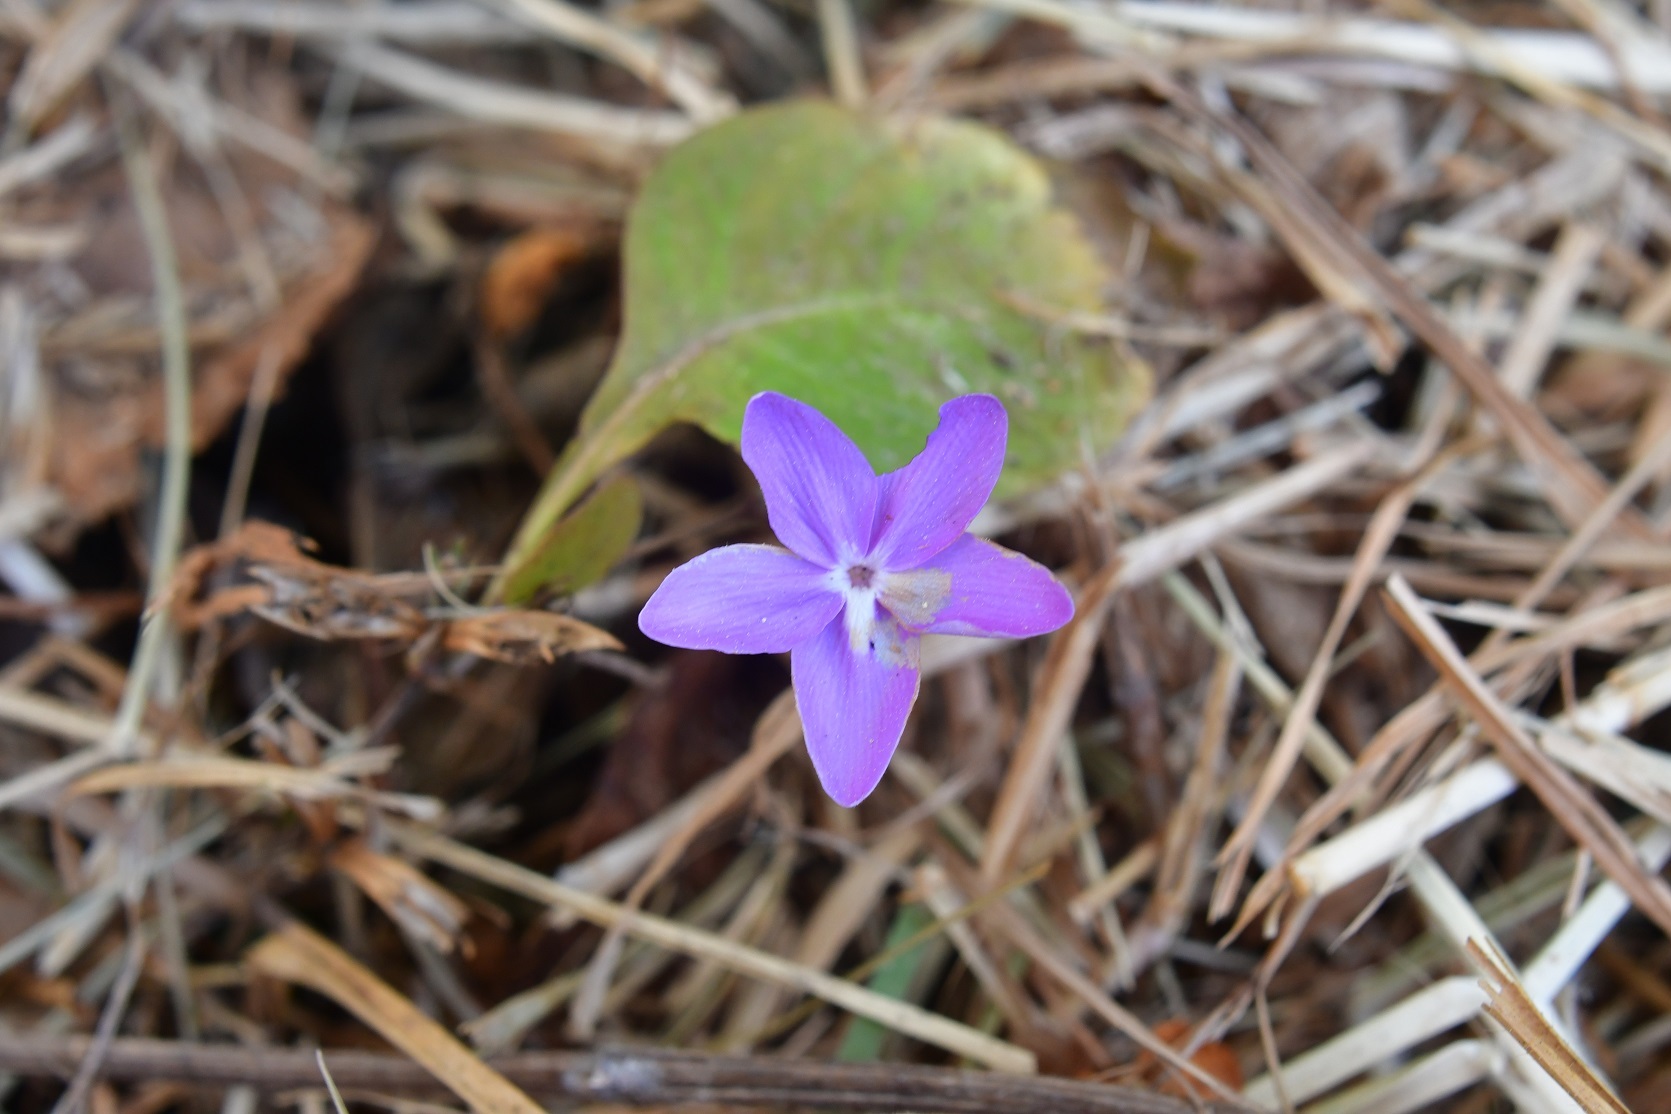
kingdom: Plantae
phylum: Tracheophyta
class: Magnoliopsida
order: Lamiales
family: Acanthaceae
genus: Pseuderanthemum
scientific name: Pseuderanthemum praecox
